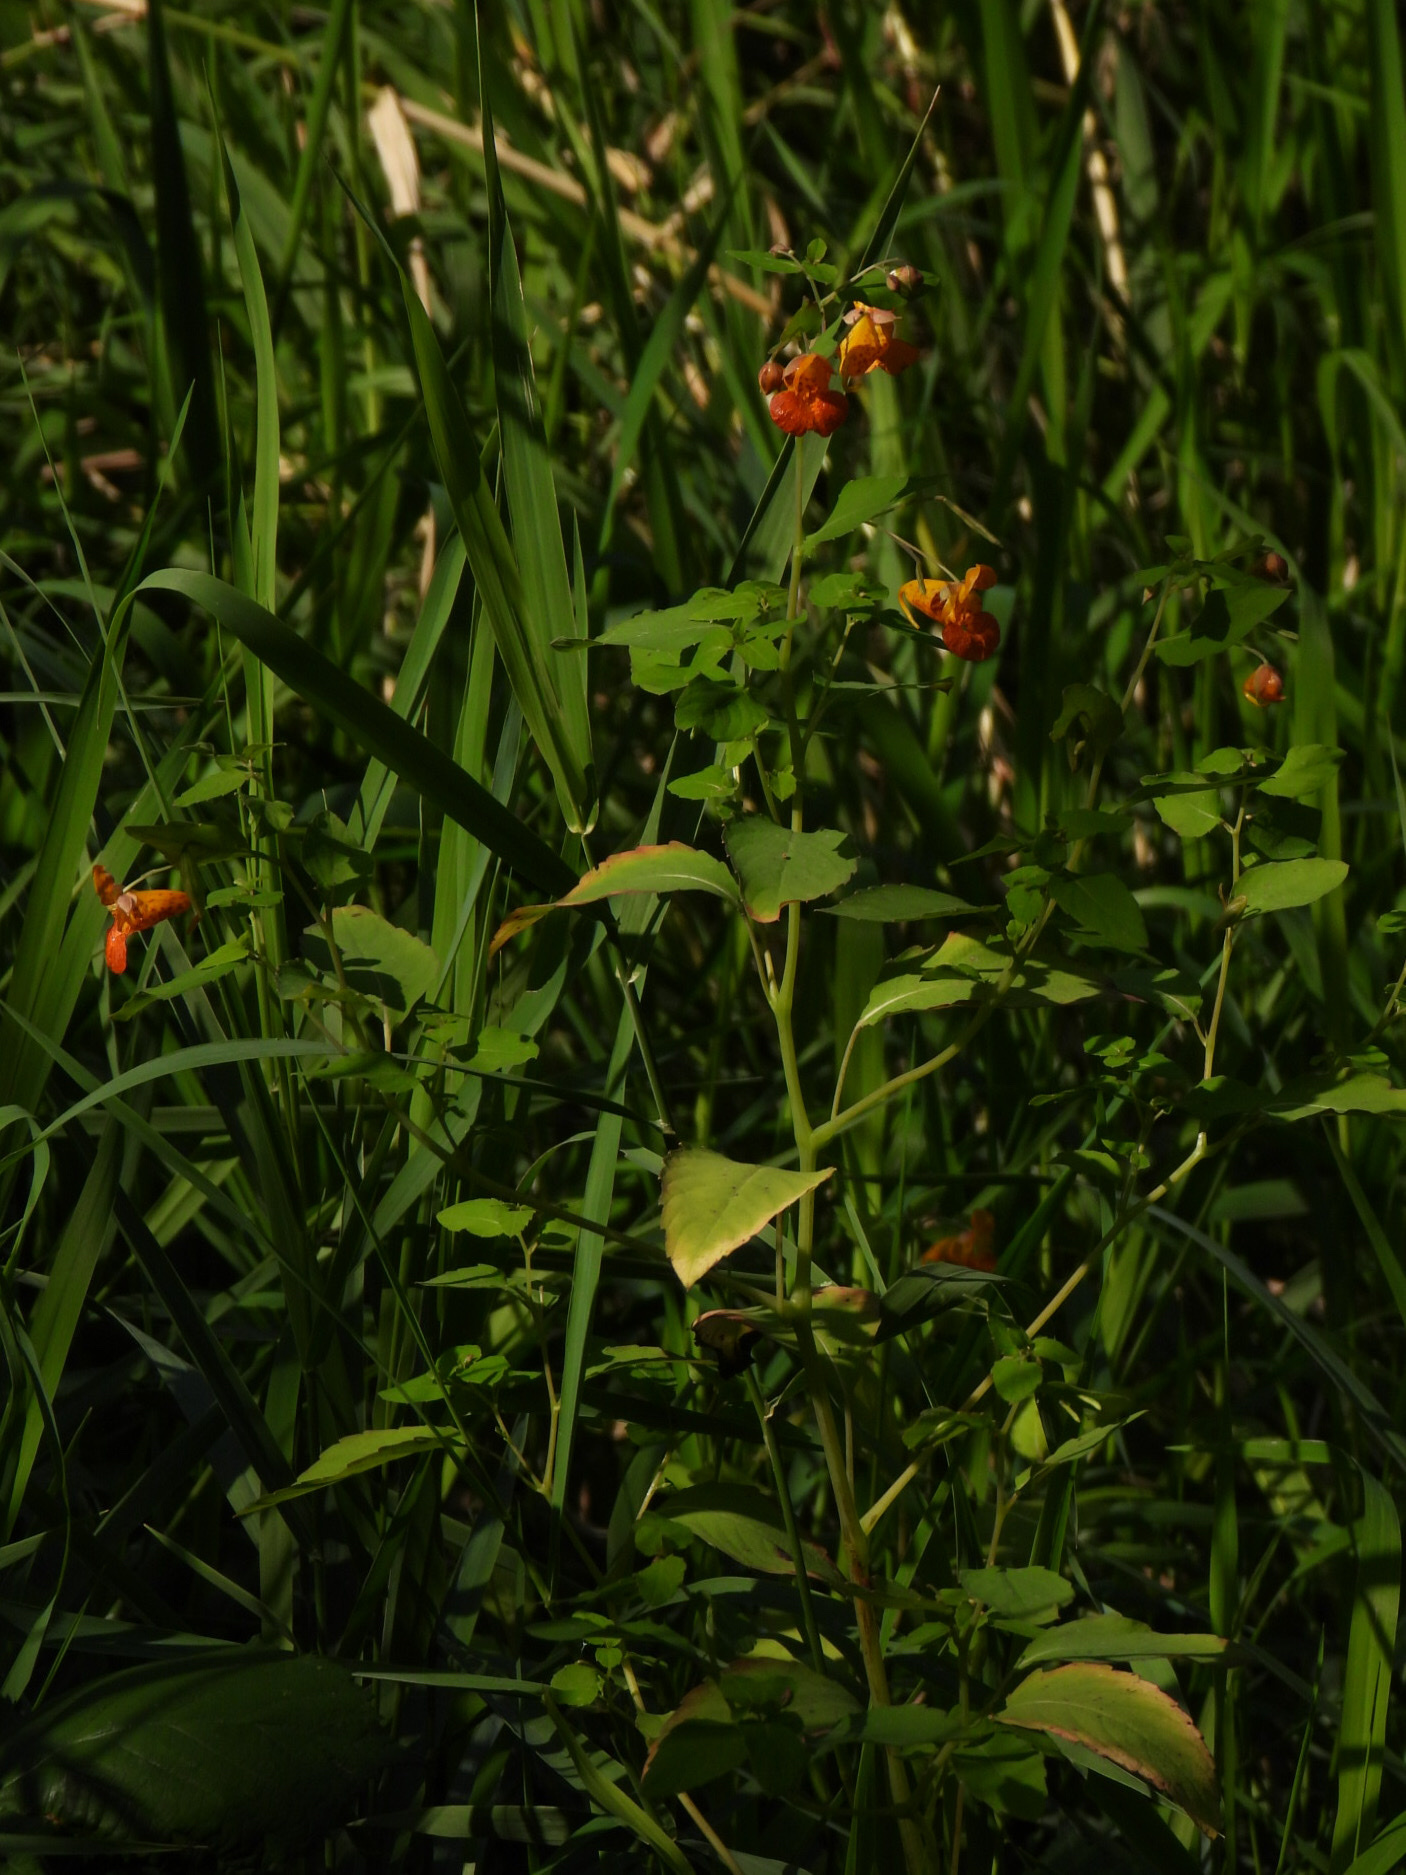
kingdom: Plantae
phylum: Tracheophyta
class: Magnoliopsida
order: Ericales
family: Balsaminaceae
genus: Impatiens
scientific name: Impatiens capensis
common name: Orange balsam
